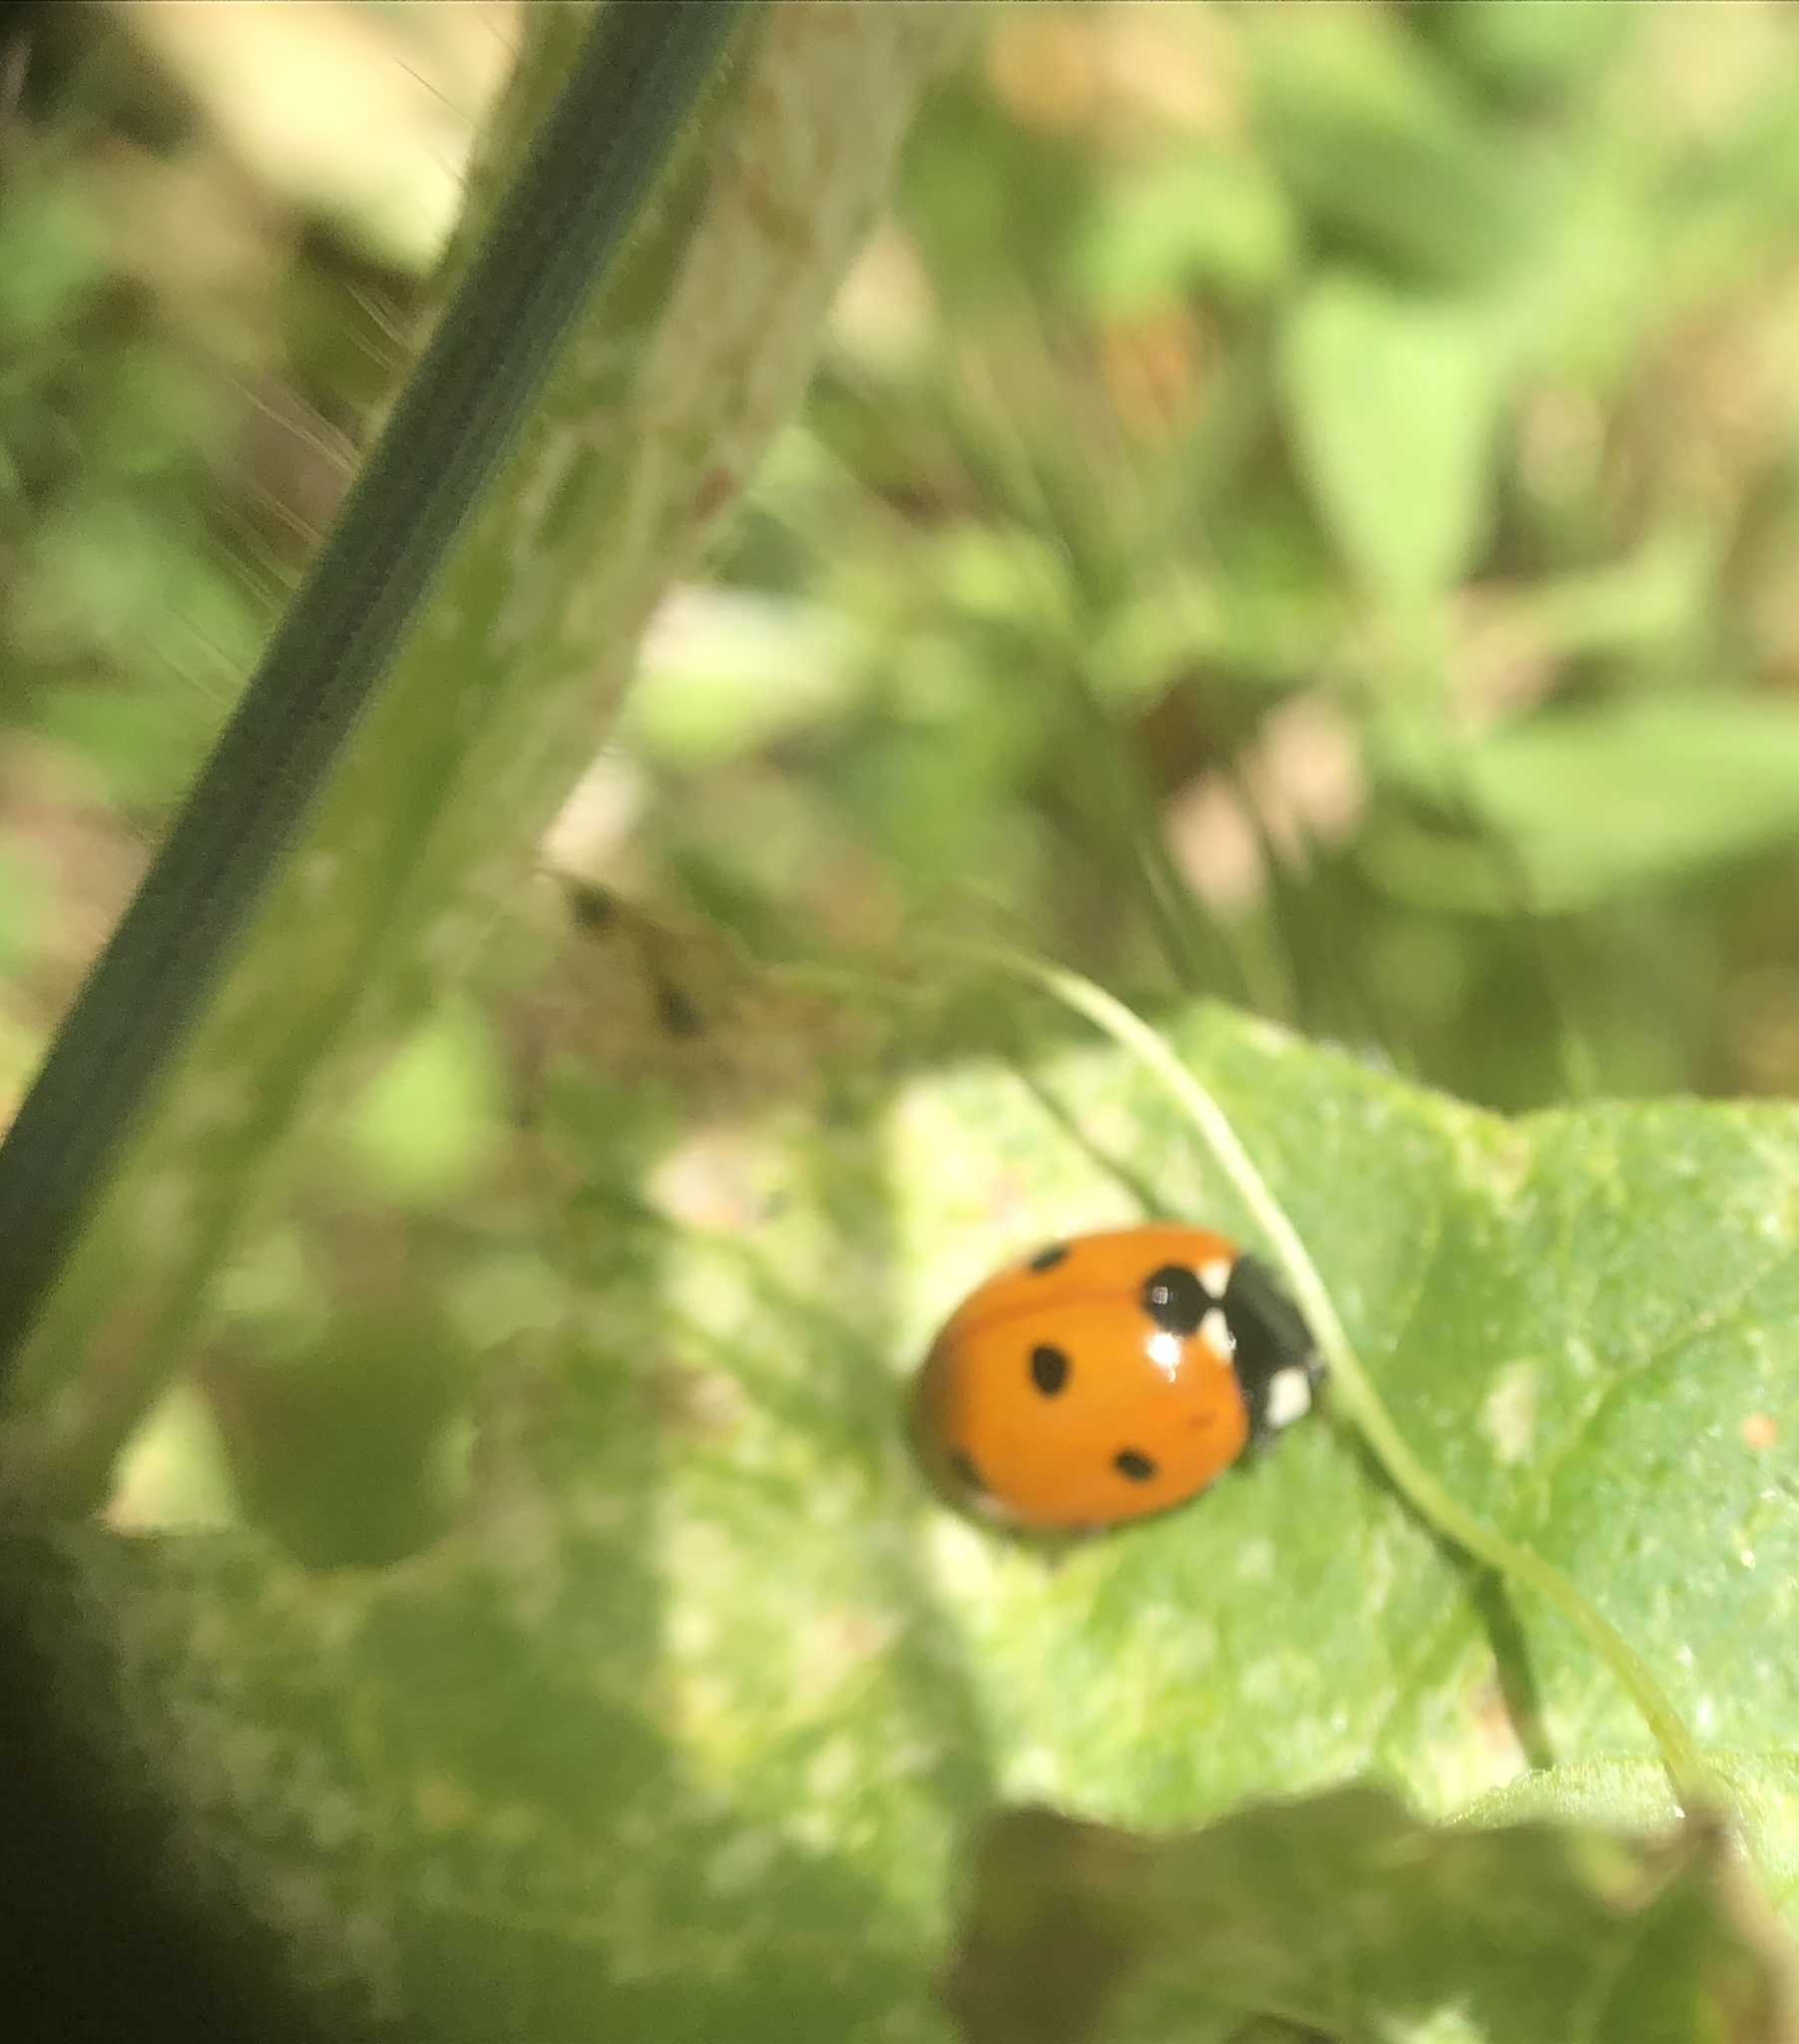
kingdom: Animalia
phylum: Arthropoda
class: Insecta
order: Coleoptera
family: Coccinellidae
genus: Coccinella
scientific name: Coccinella septempunctata
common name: Sevenspotted lady beetle
